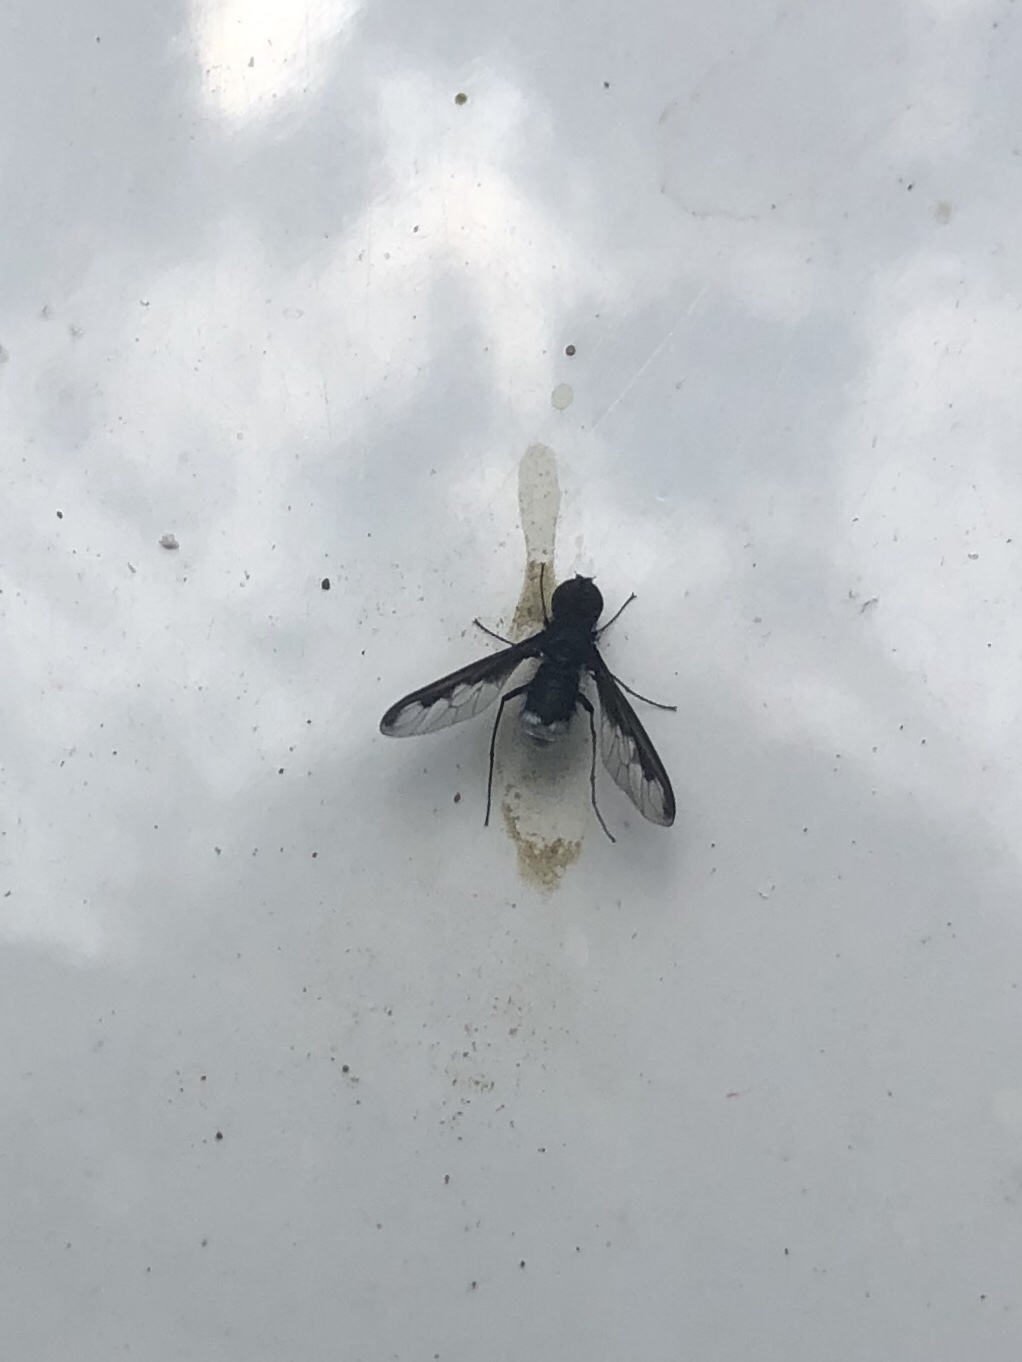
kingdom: Animalia
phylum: Arthropoda
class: Insecta
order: Diptera
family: Bombyliidae
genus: Anthrax
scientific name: Anthrax argyropygus
